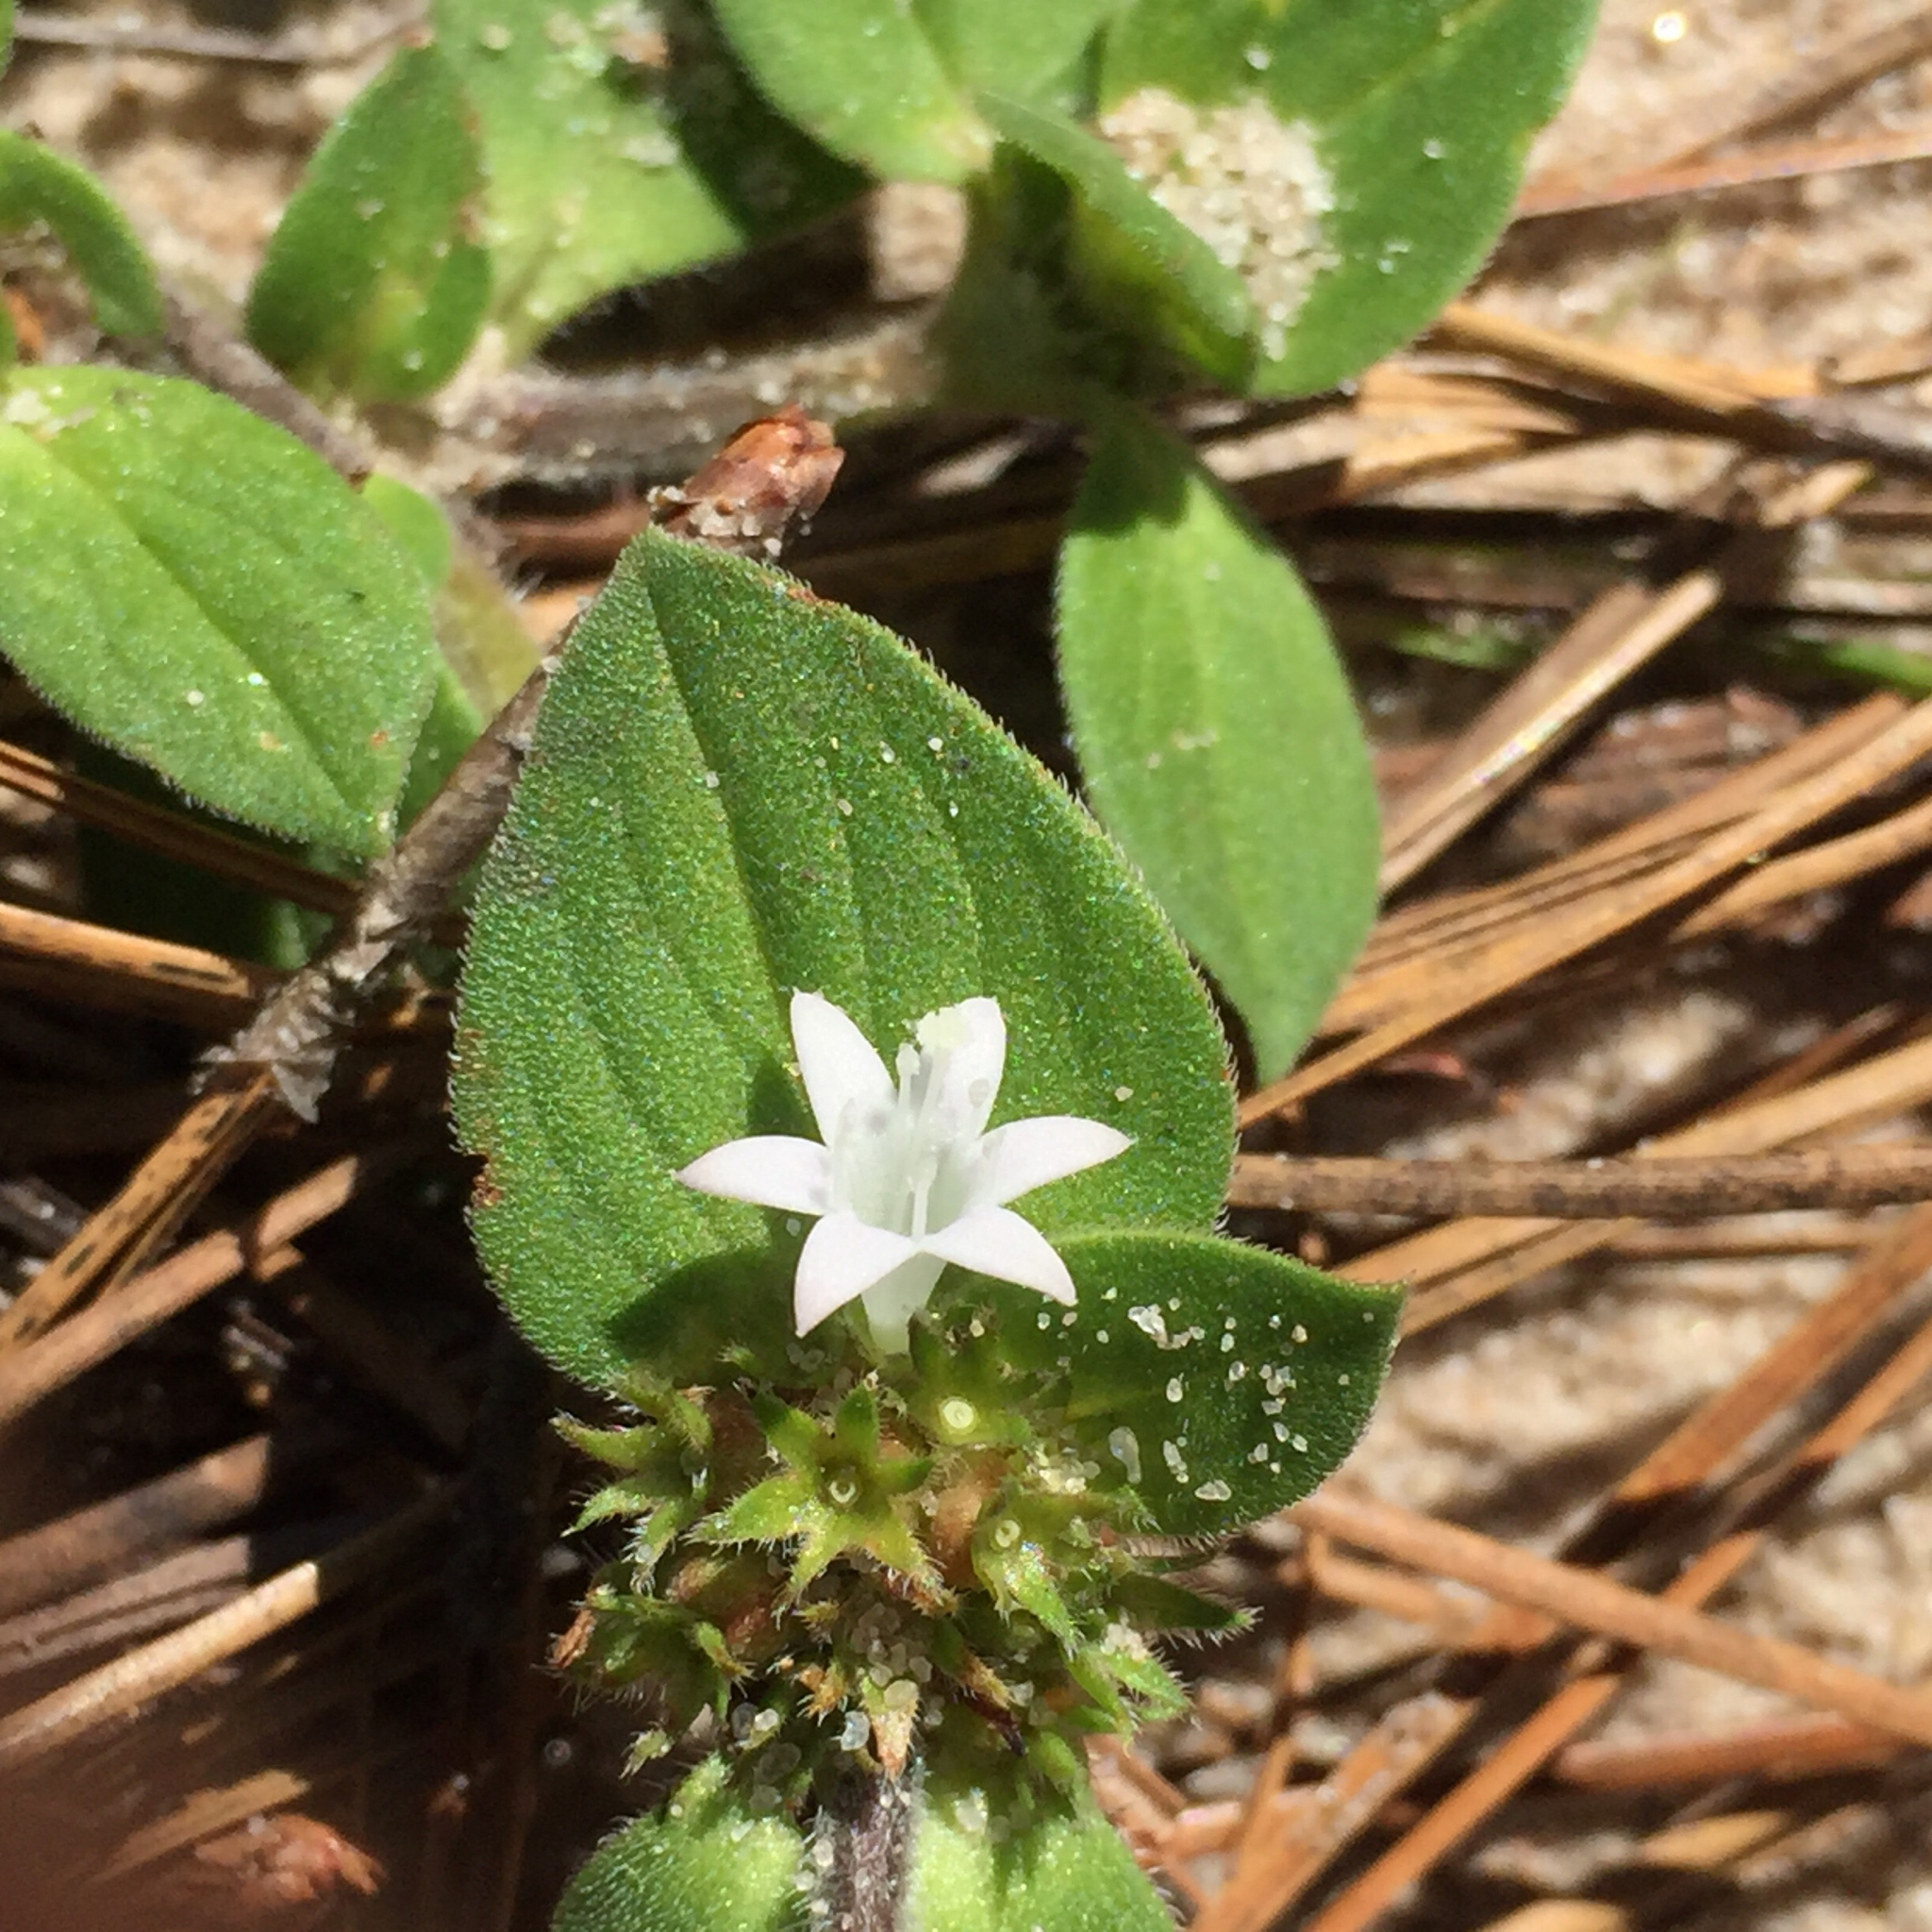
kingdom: Plantae
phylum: Tracheophyta
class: Magnoliopsida
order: Gentianales
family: Rubiaceae
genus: Richardia
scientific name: Richardia brasiliensis
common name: Tropical mexican clover
